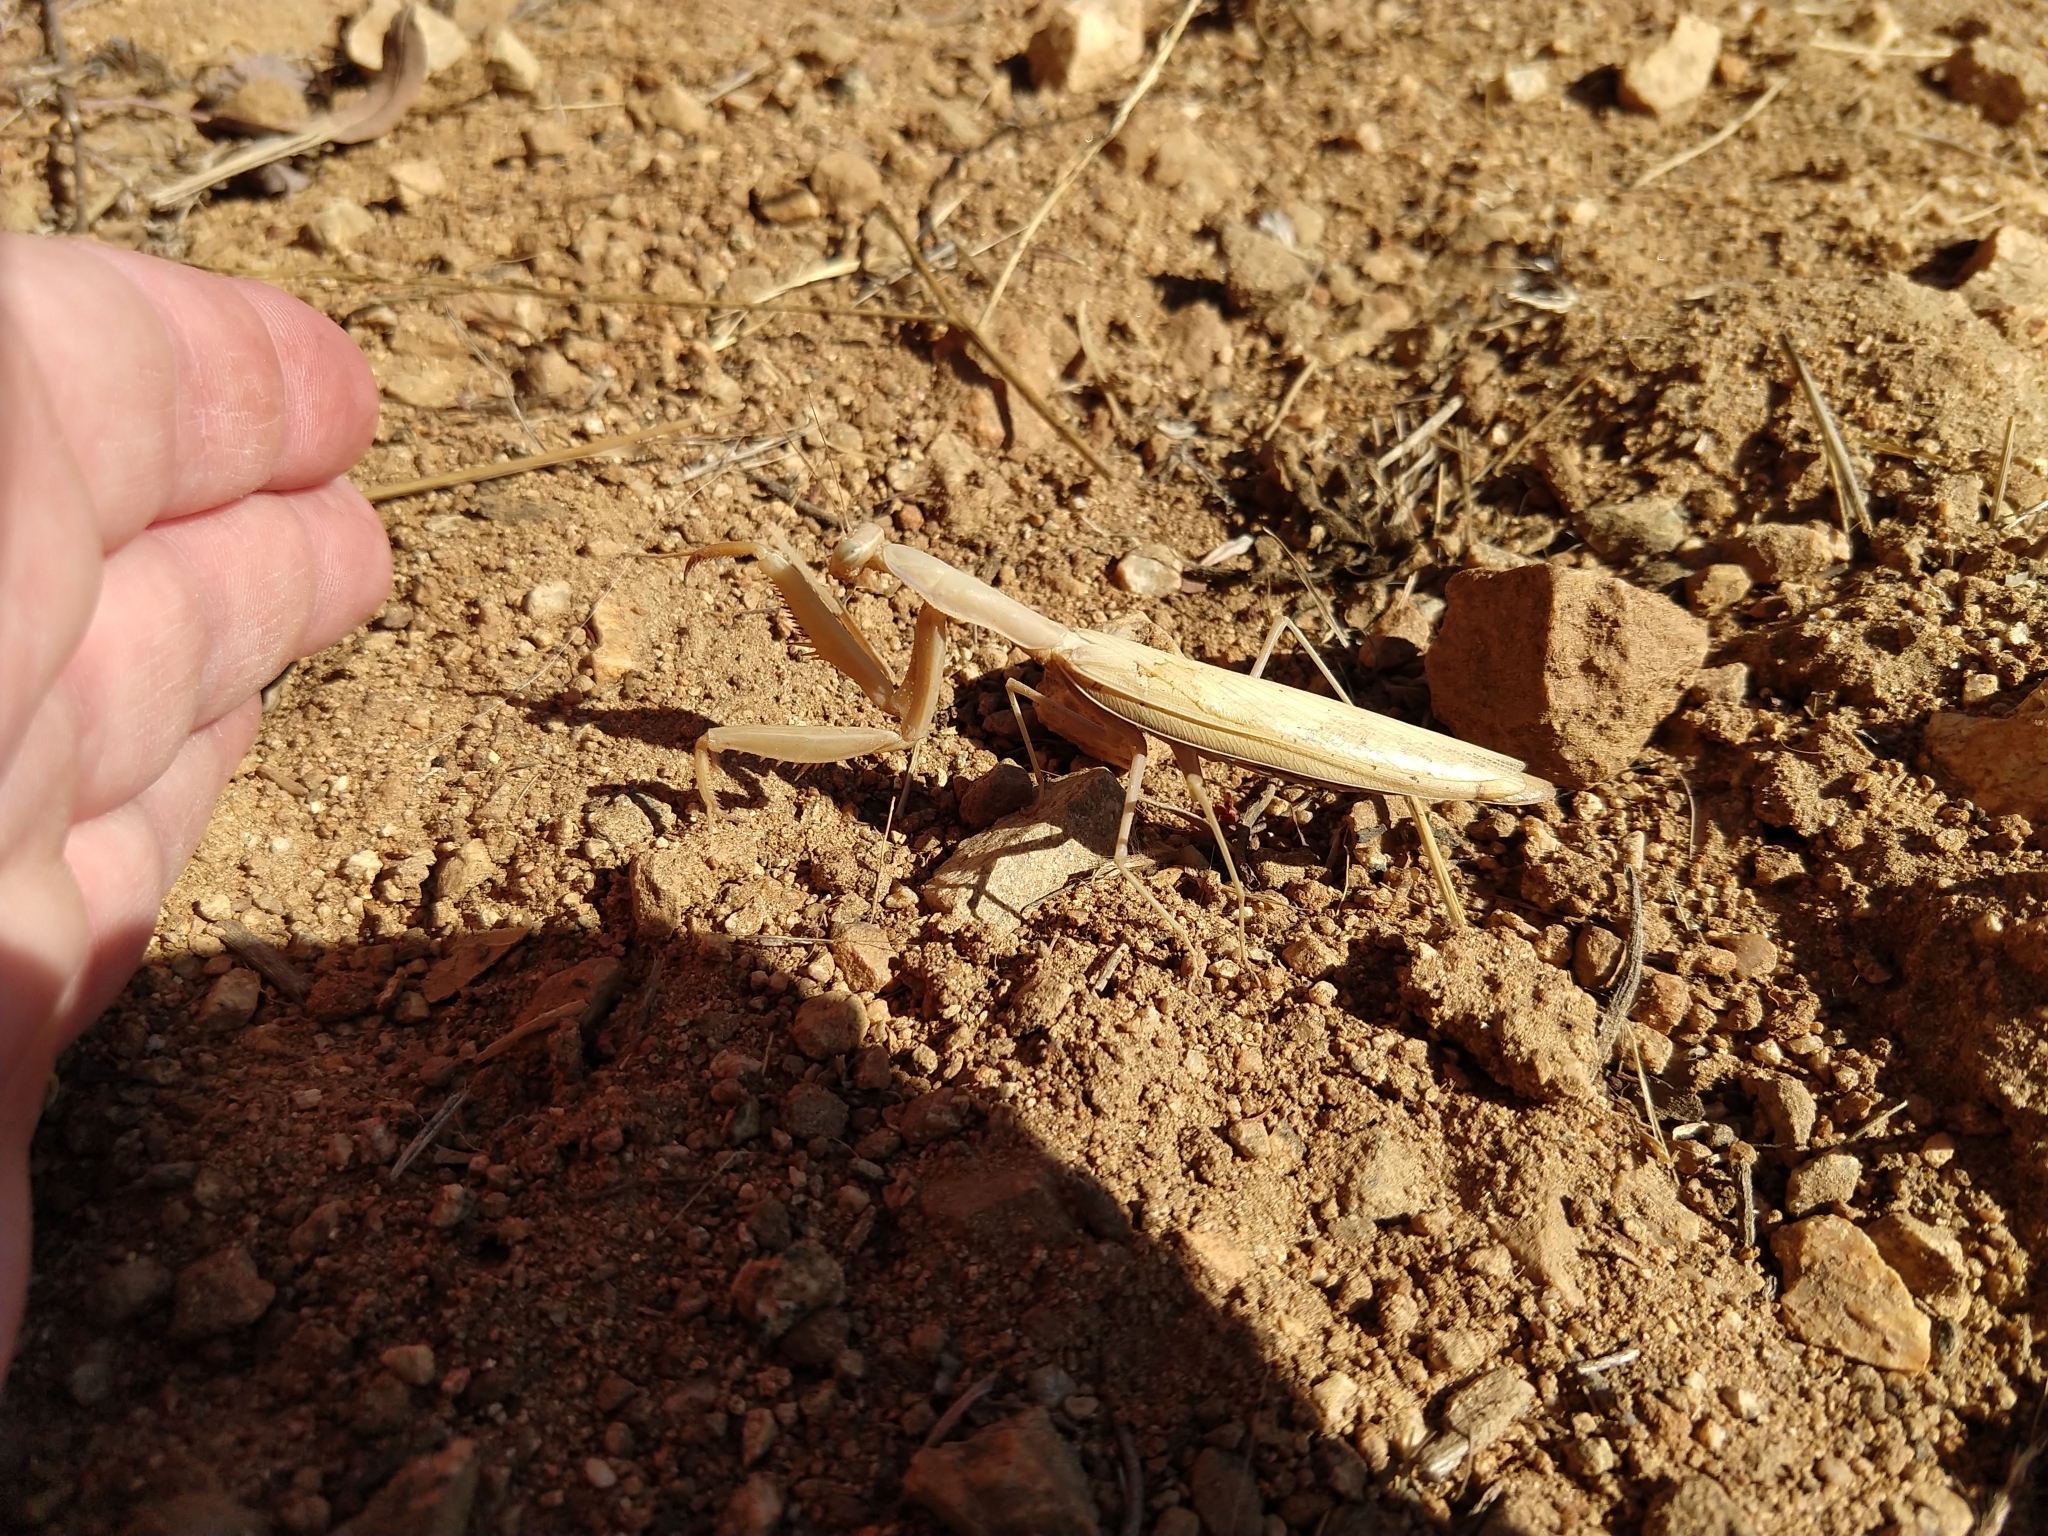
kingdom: Animalia
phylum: Arthropoda
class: Insecta
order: Mantodea
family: Mantidae
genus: Mantis
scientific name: Mantis religiosa
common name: Praying mantis
